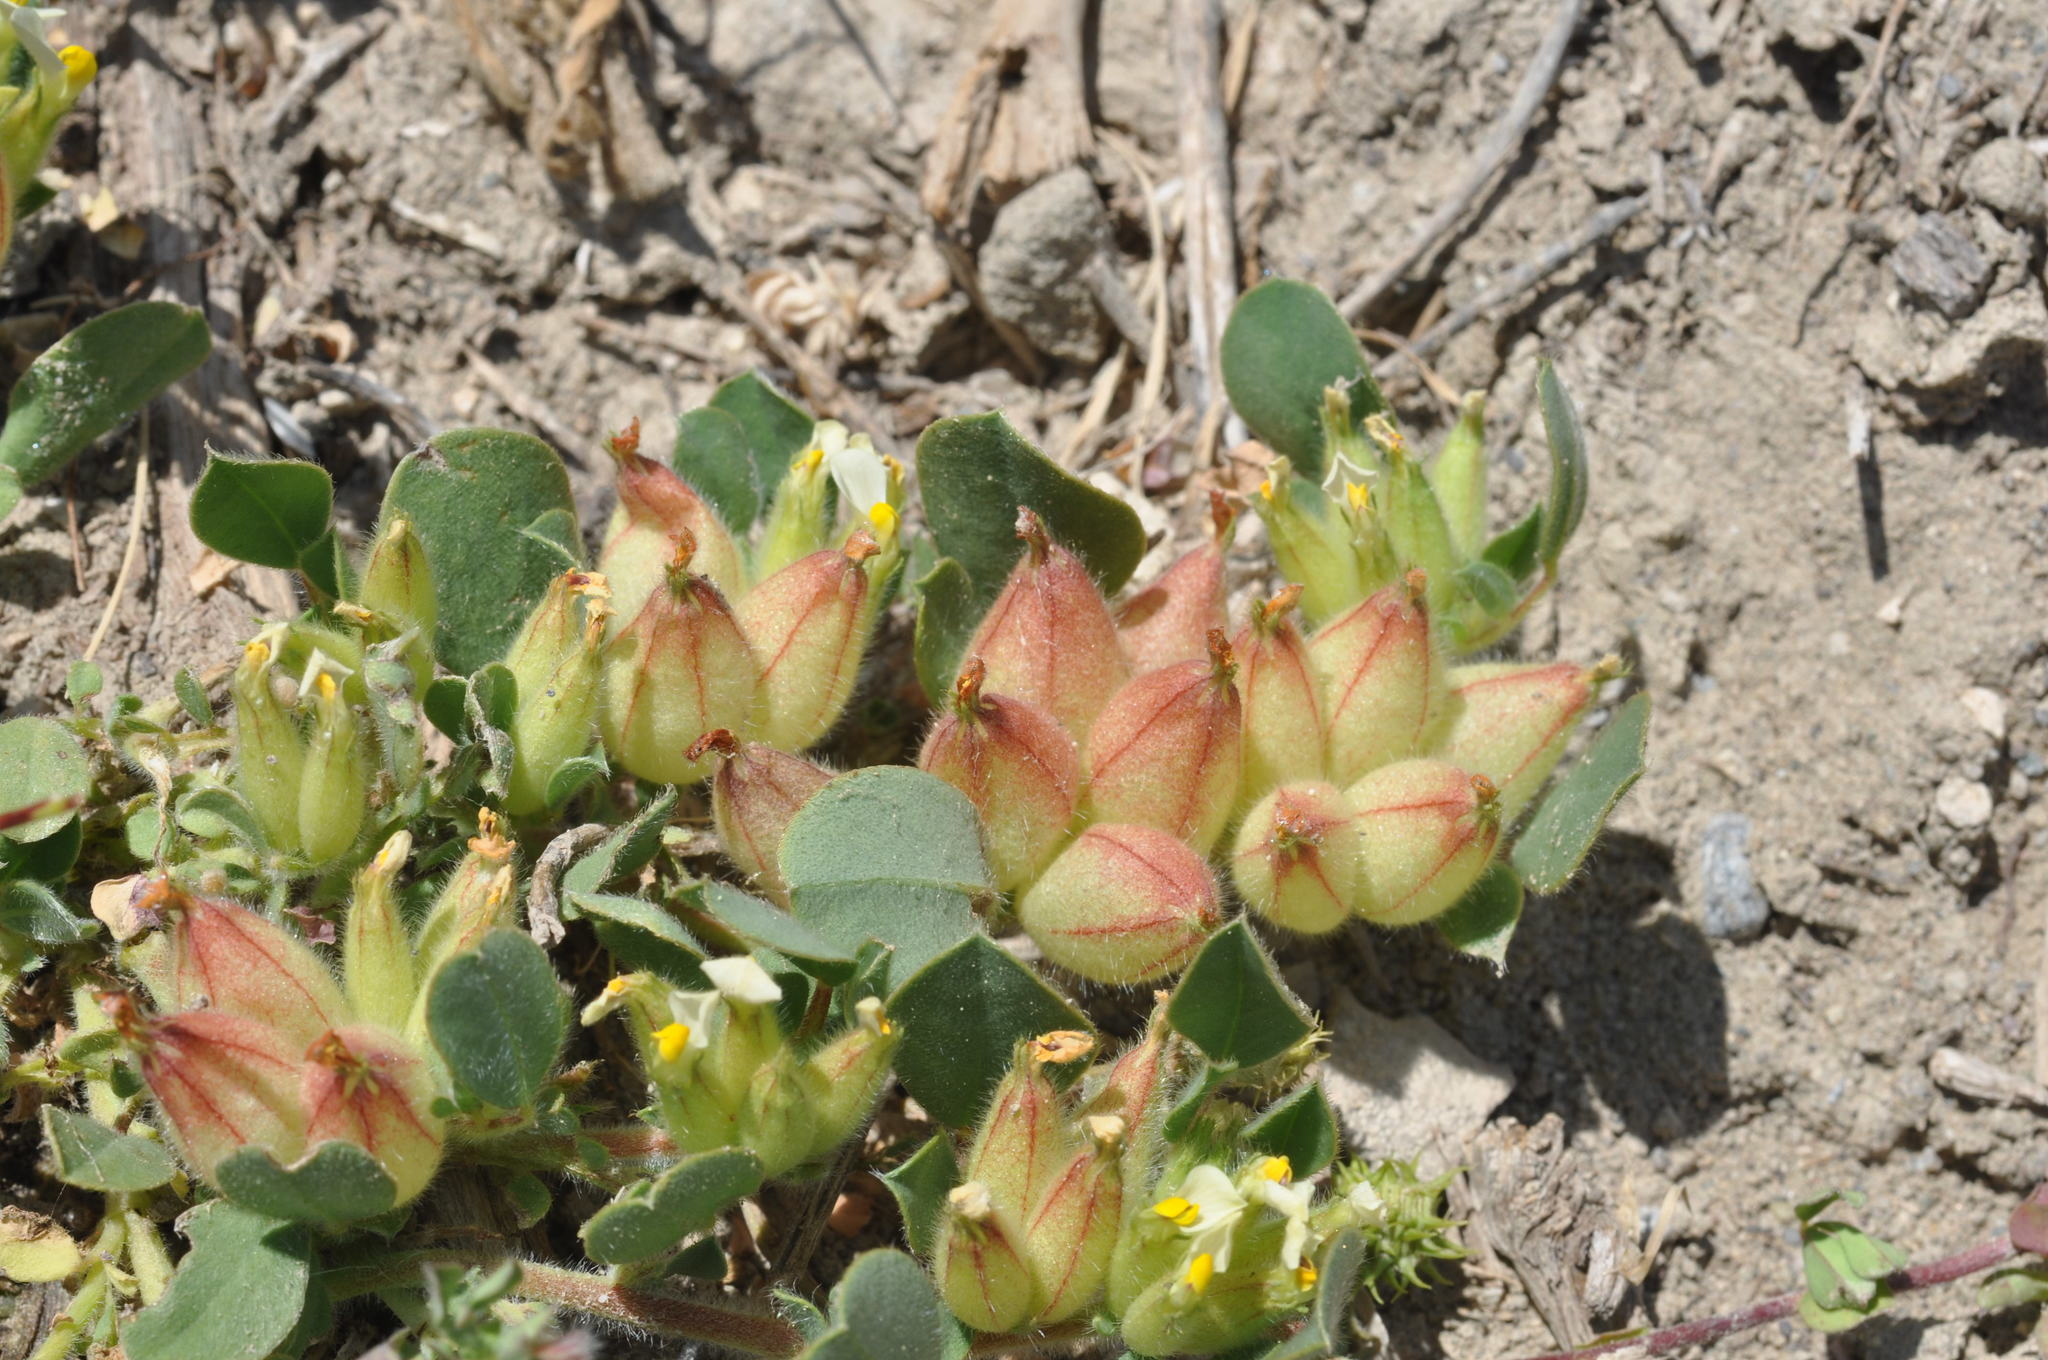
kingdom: Plantae
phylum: Tracheophyta
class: Magnoliopsida
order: Fabales
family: Fabaceae
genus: Tripodion
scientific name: Tripodion tetraphyllum
